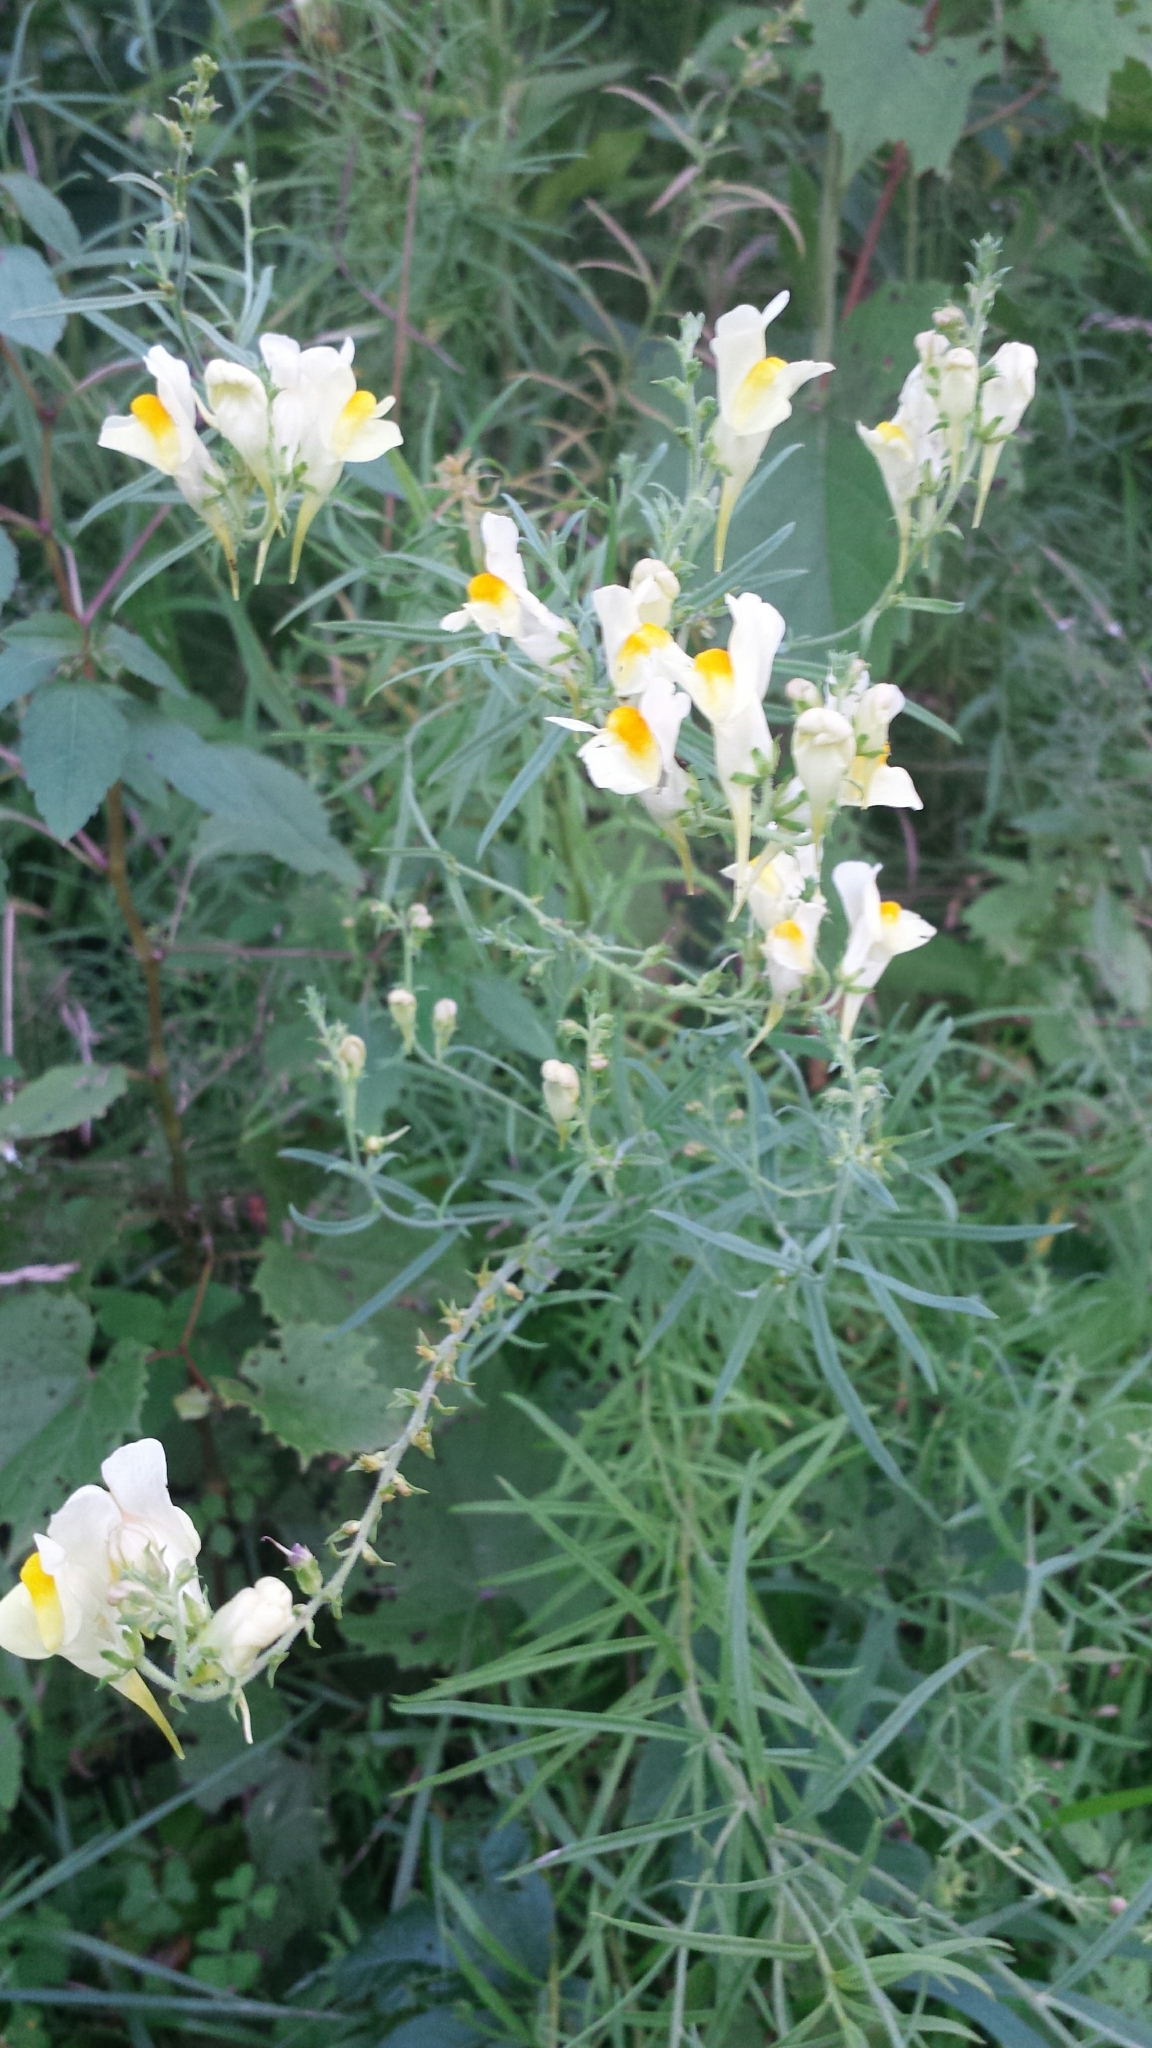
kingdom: Plantae
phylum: Tracheophyta
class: Magnoliopsida
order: Lamiales
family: Plantaginaceae
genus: Linaria
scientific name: Linaria vulgaris
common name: Butter and eggs
